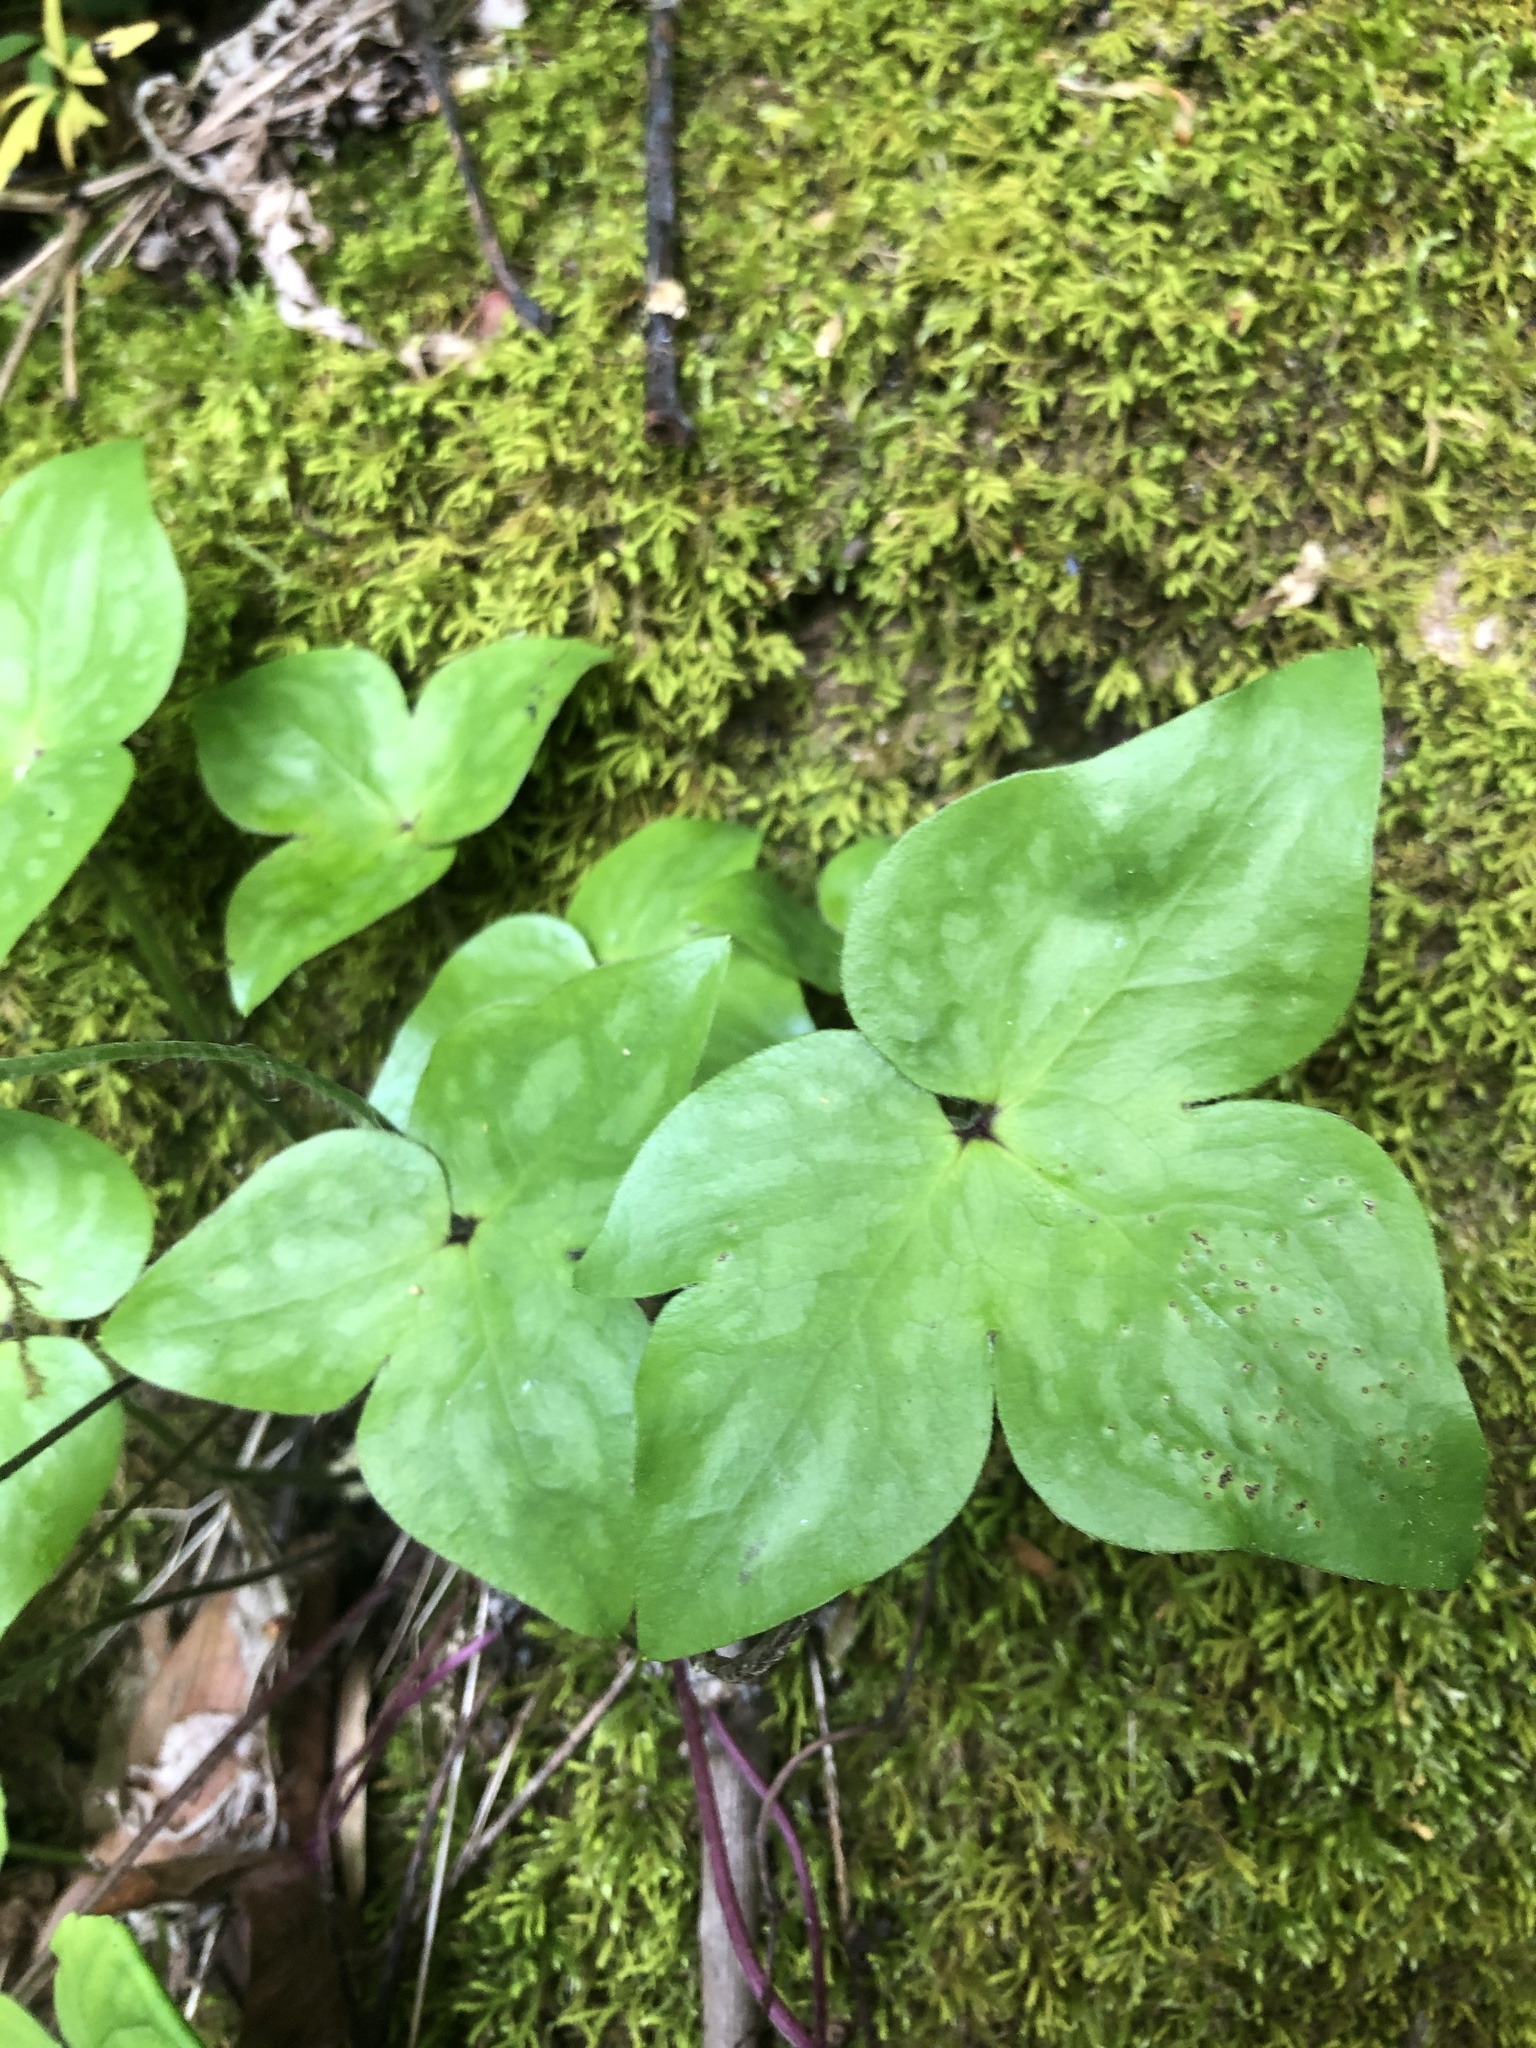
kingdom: Plantae
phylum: Tracheophyta
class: Magnoliopsida
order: Ranunculales
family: Ranunculaceae
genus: Hepatica
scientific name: Hepatica acutiloba
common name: Sharp-lobed hepatica
